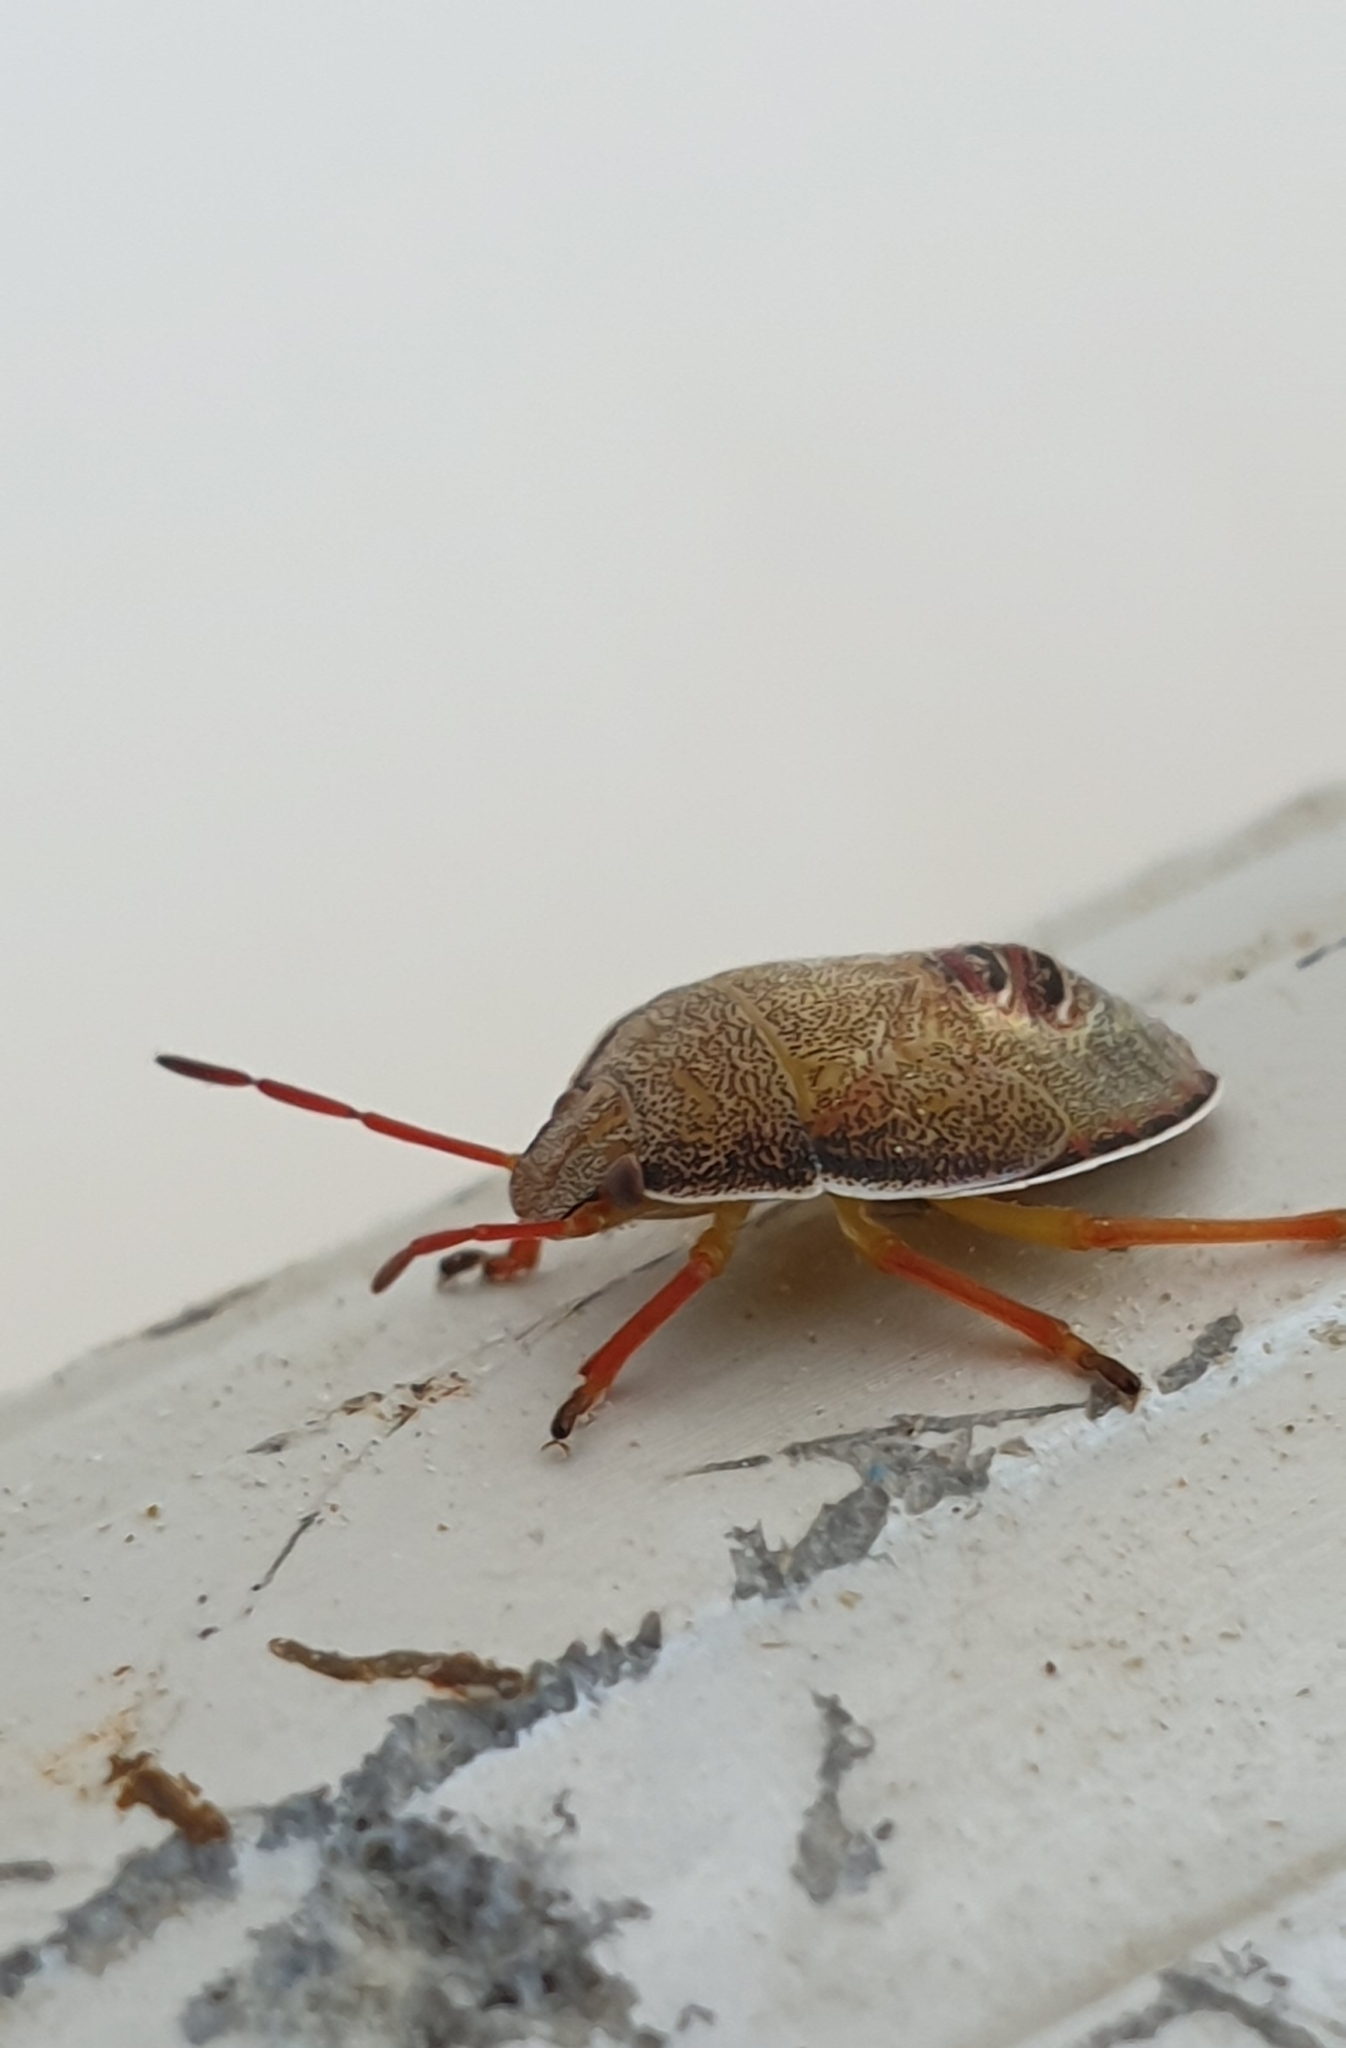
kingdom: Animalia
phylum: Arthropoda
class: Insecta
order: Hemiptera
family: Pentatomidae
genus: Piezodorus
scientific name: Piezodorus lituratus
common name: Stink bug
